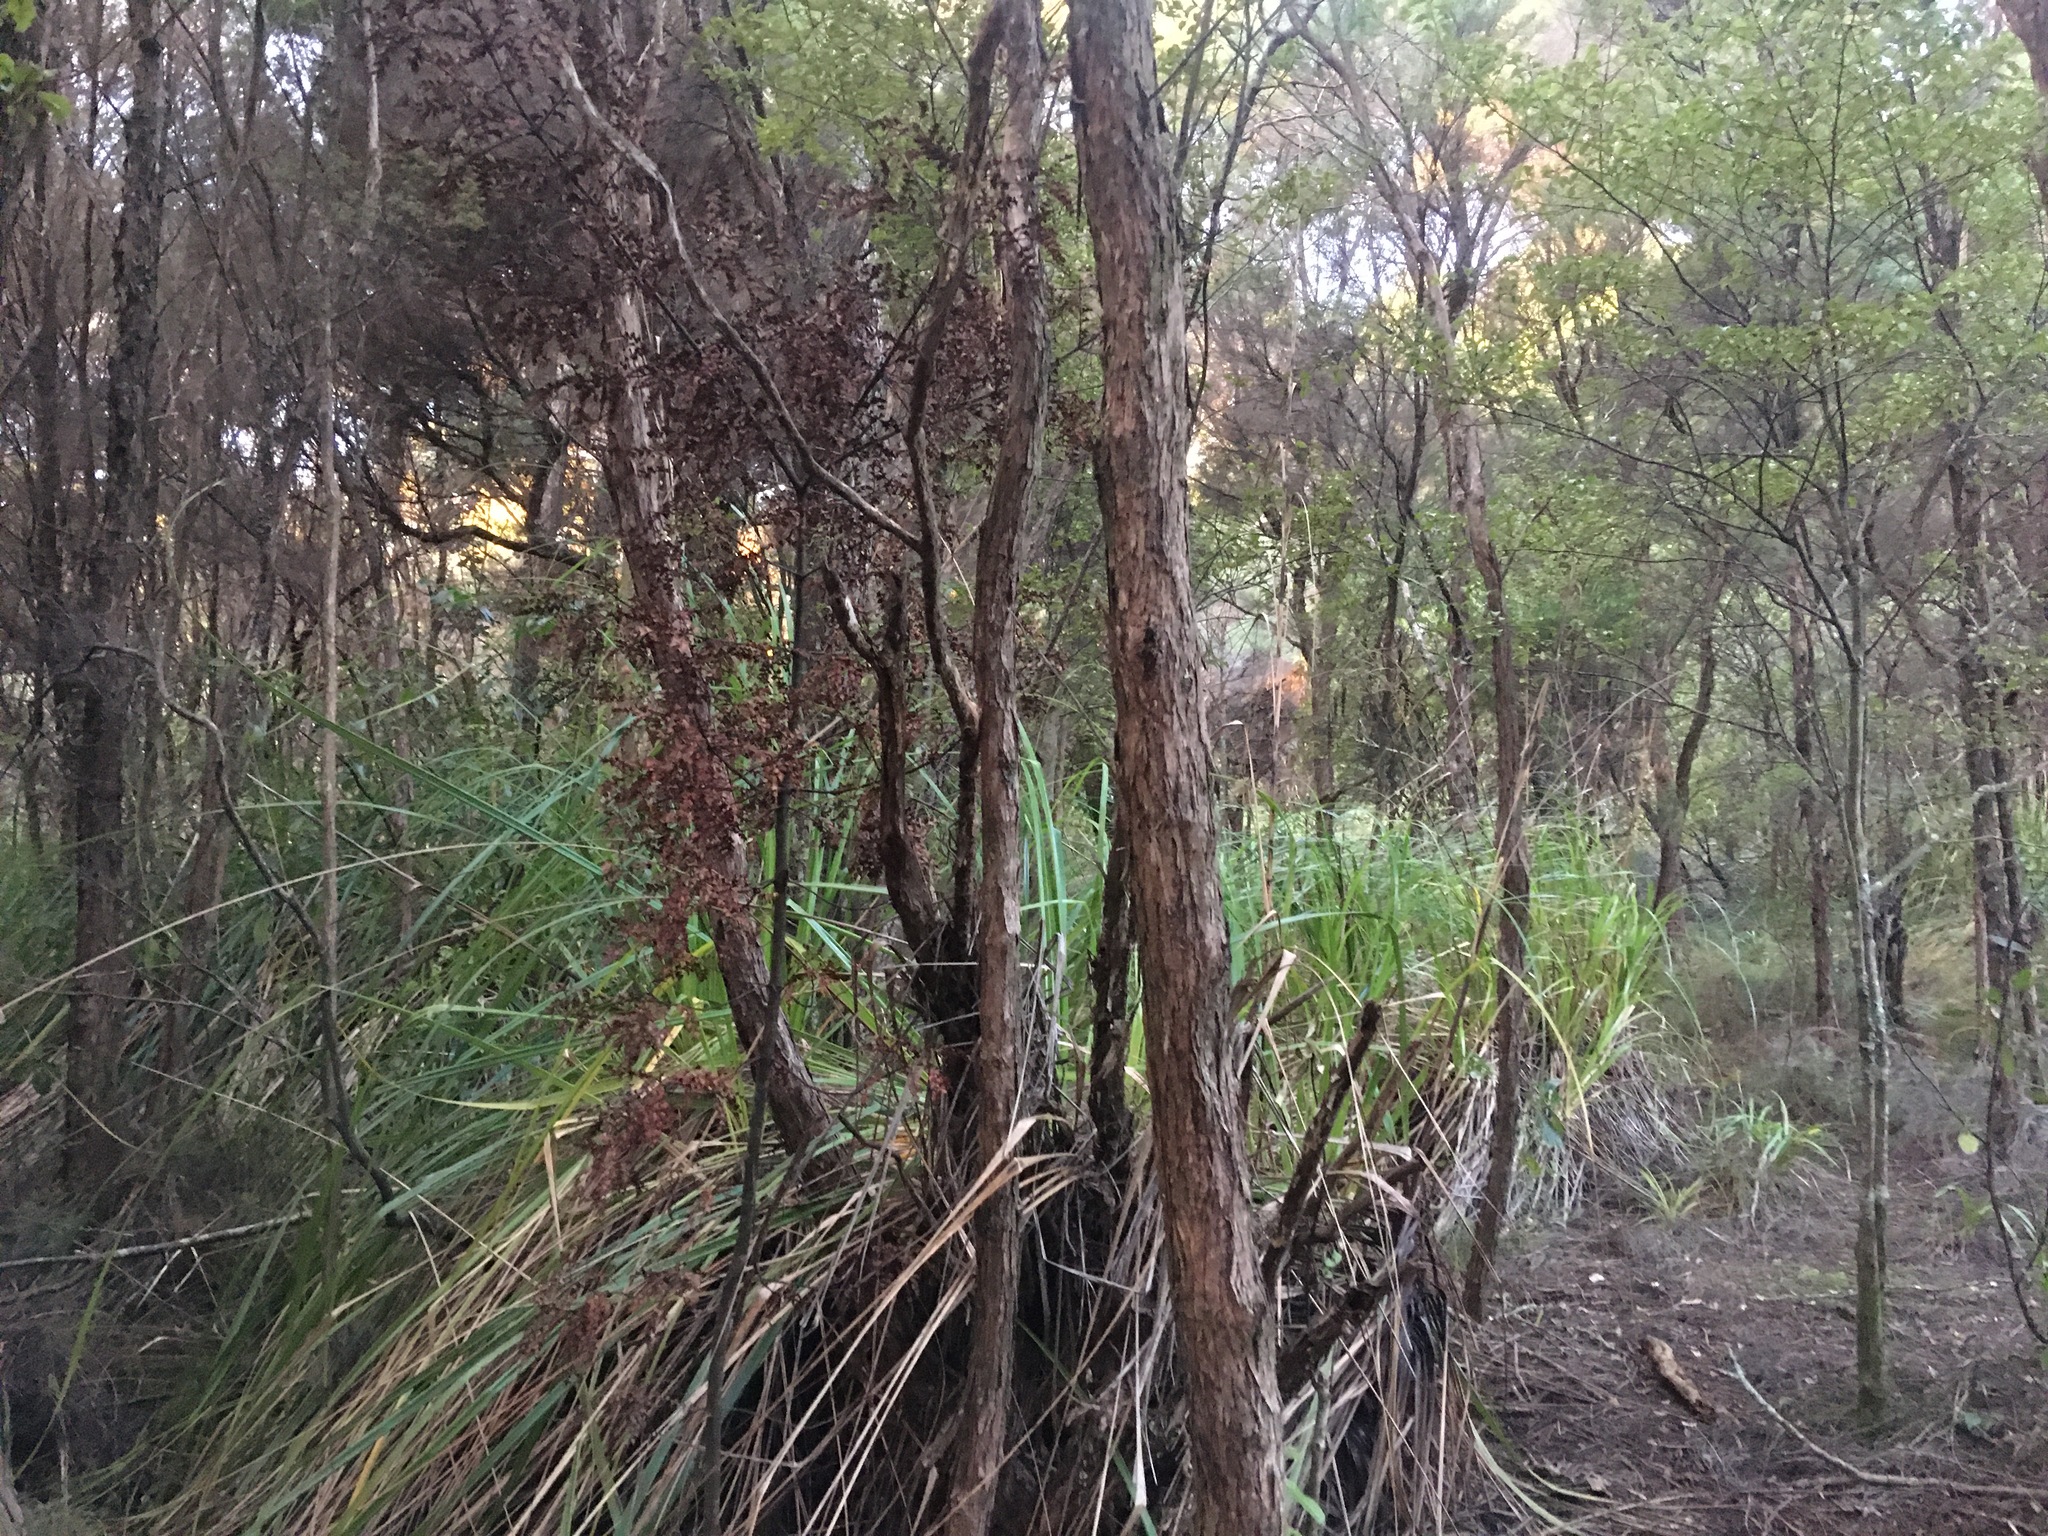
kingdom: Plantae
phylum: Tracheophyta
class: Pinopsida
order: Pinales
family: Phyllocladaceae
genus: Phyllocladus
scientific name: Phyllocladus trichomanoides
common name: Celery pine
